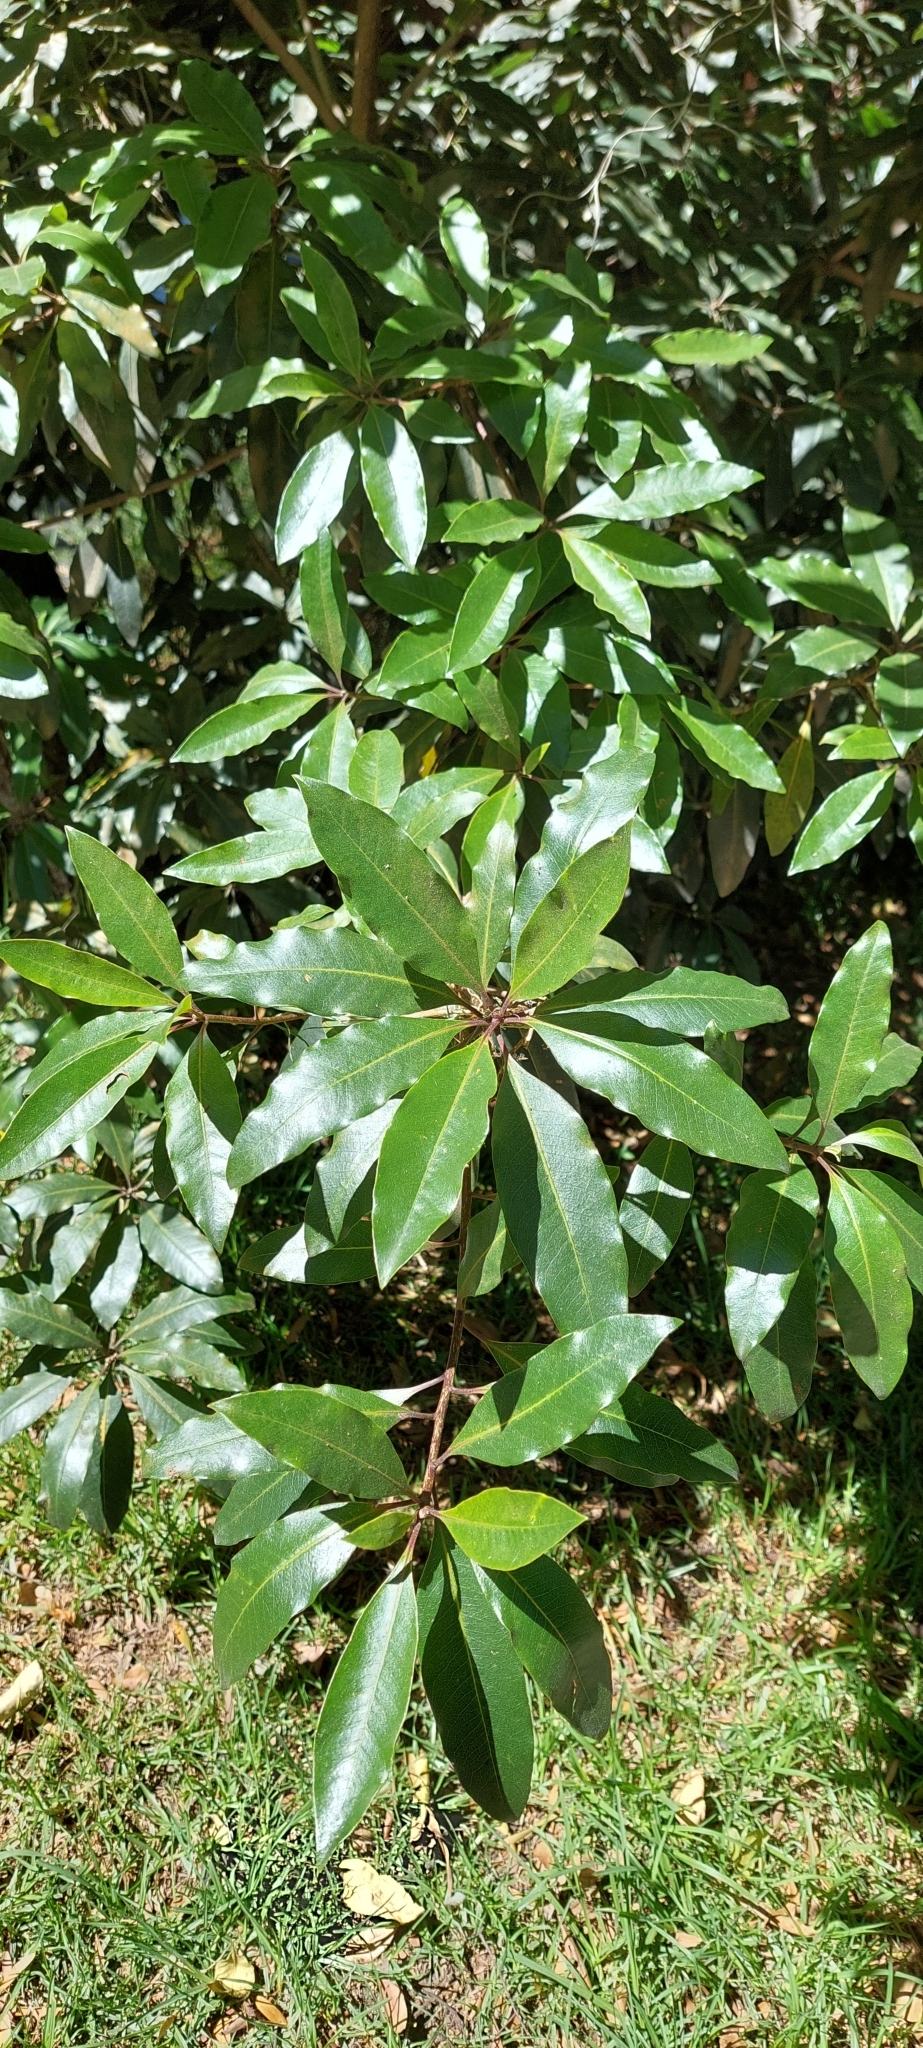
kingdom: Plantae
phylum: Tracheophyta
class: Magnoliopsida
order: Apiales
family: Pittosporaceae
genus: Pittosporum
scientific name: Pittosporum undulatum
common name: Australian cheesewood
